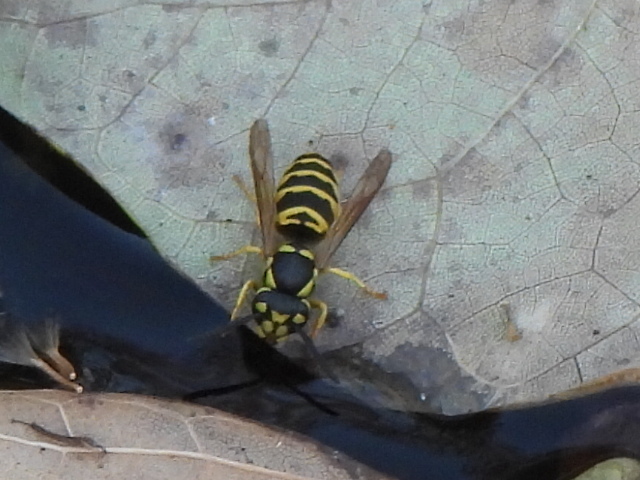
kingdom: Animalia
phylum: Arthropoda
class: Insecta
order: Hymenoptera
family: Vespidae
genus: Vespula
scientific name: Vespula maculifrons
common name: Eastern yellowjacket
